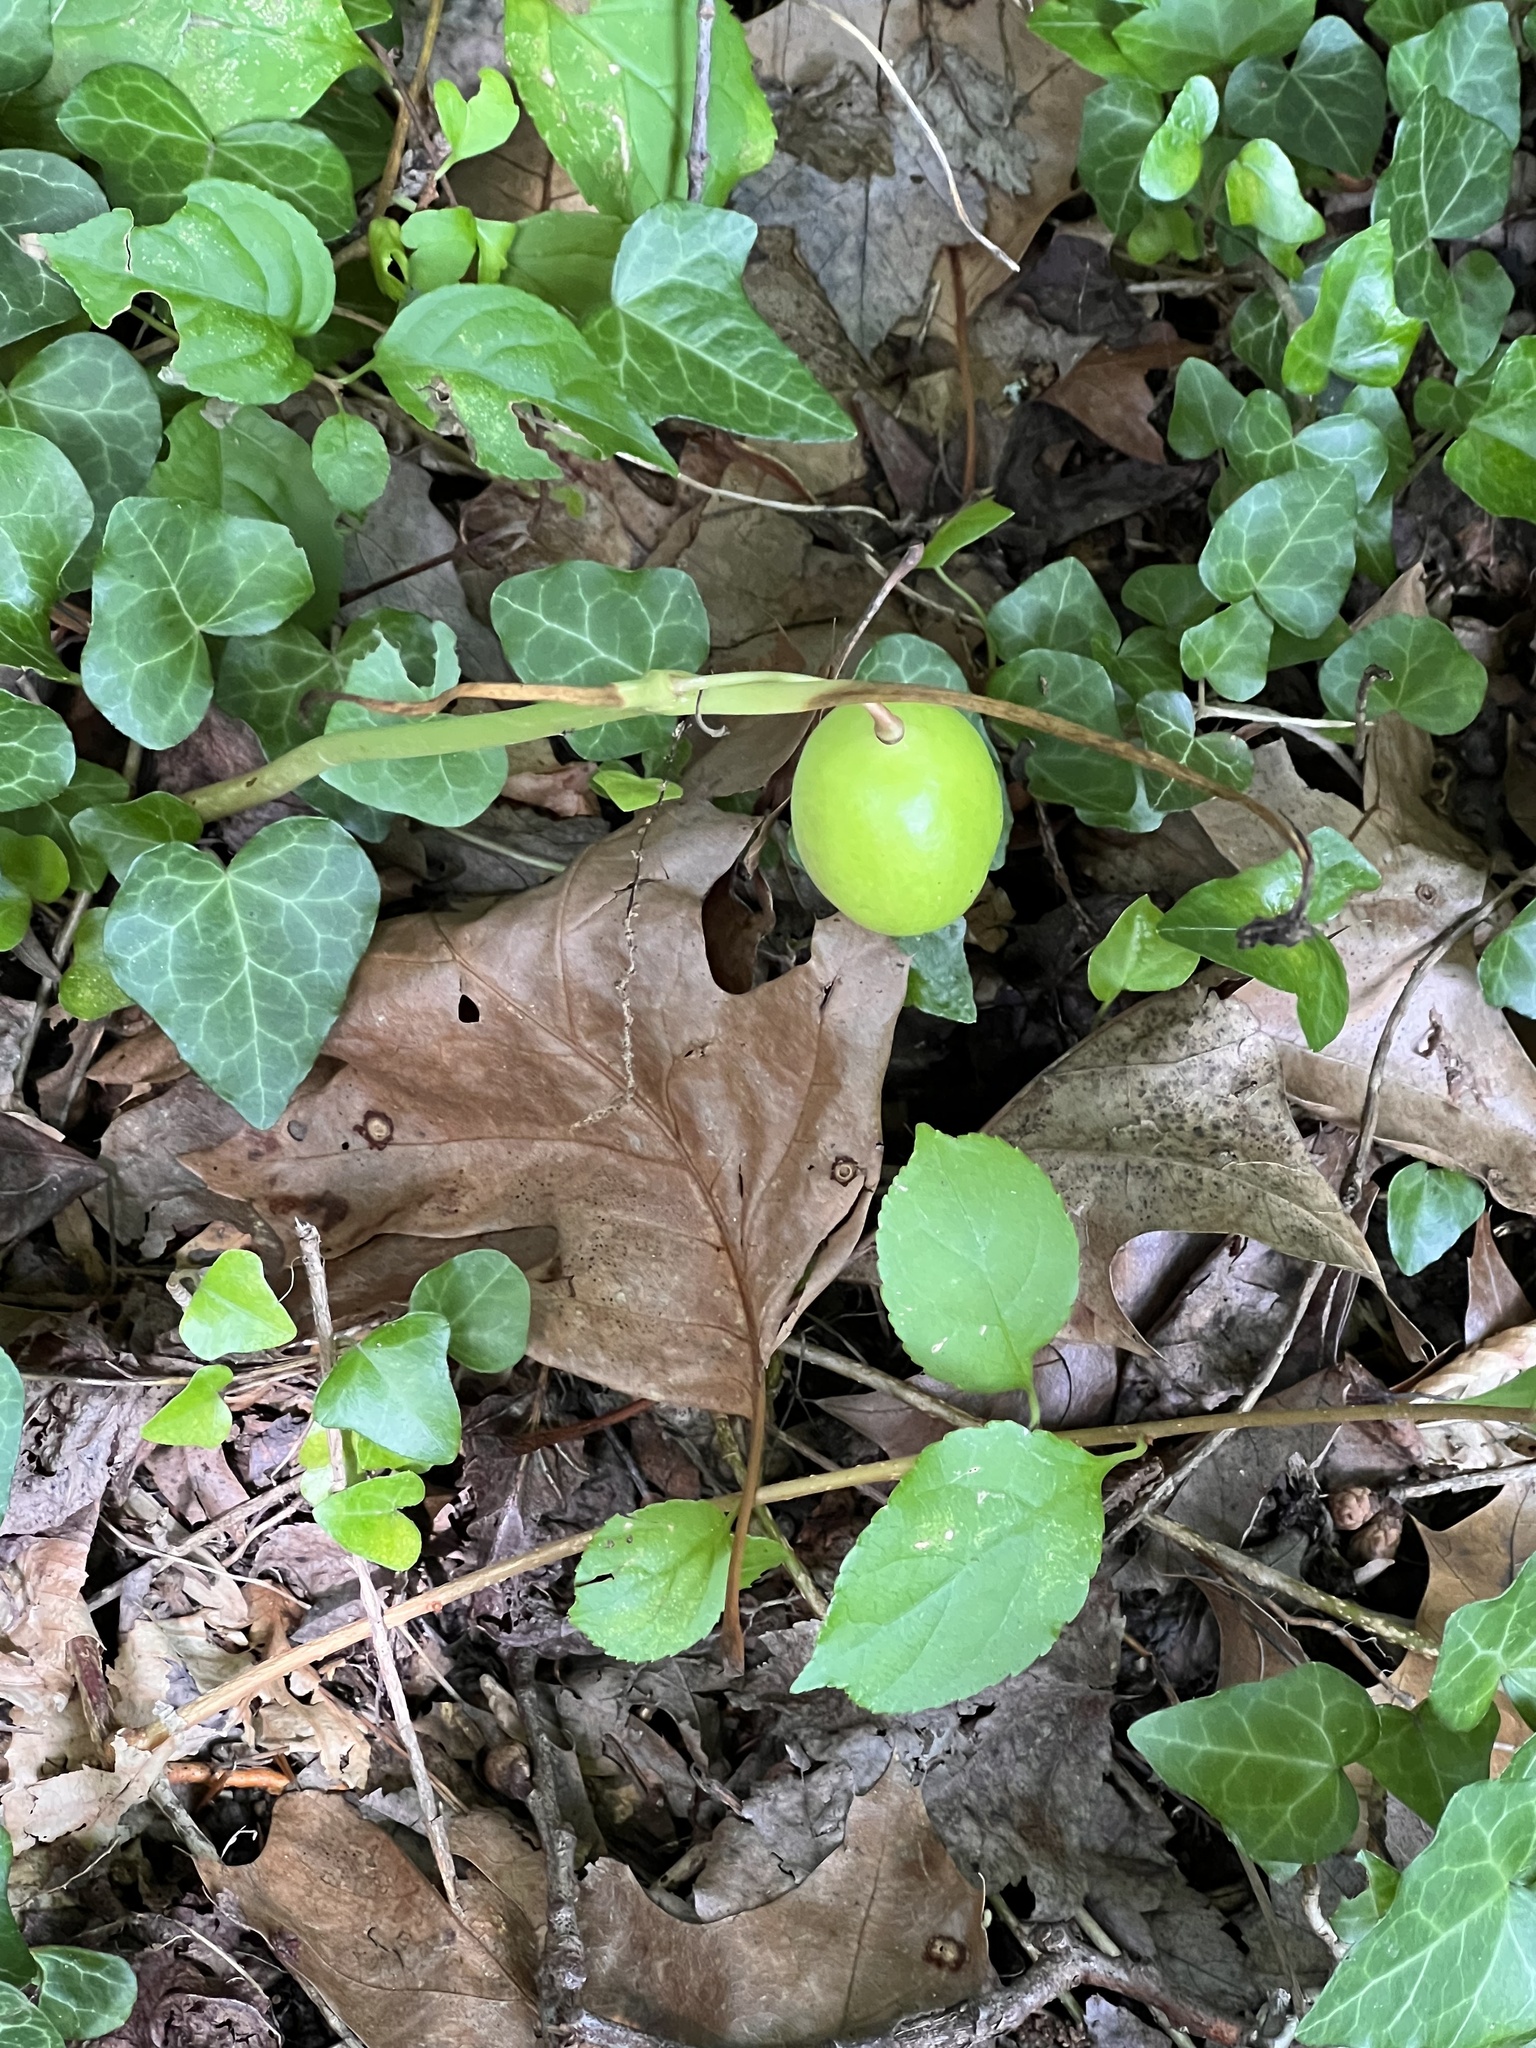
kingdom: Plantae
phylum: Tracheophyta
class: Magnoliopsida
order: Ranunculales
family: Berberidaceae
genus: Podophyllum
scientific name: Podophyllum peltatum
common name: Wild mandrake
